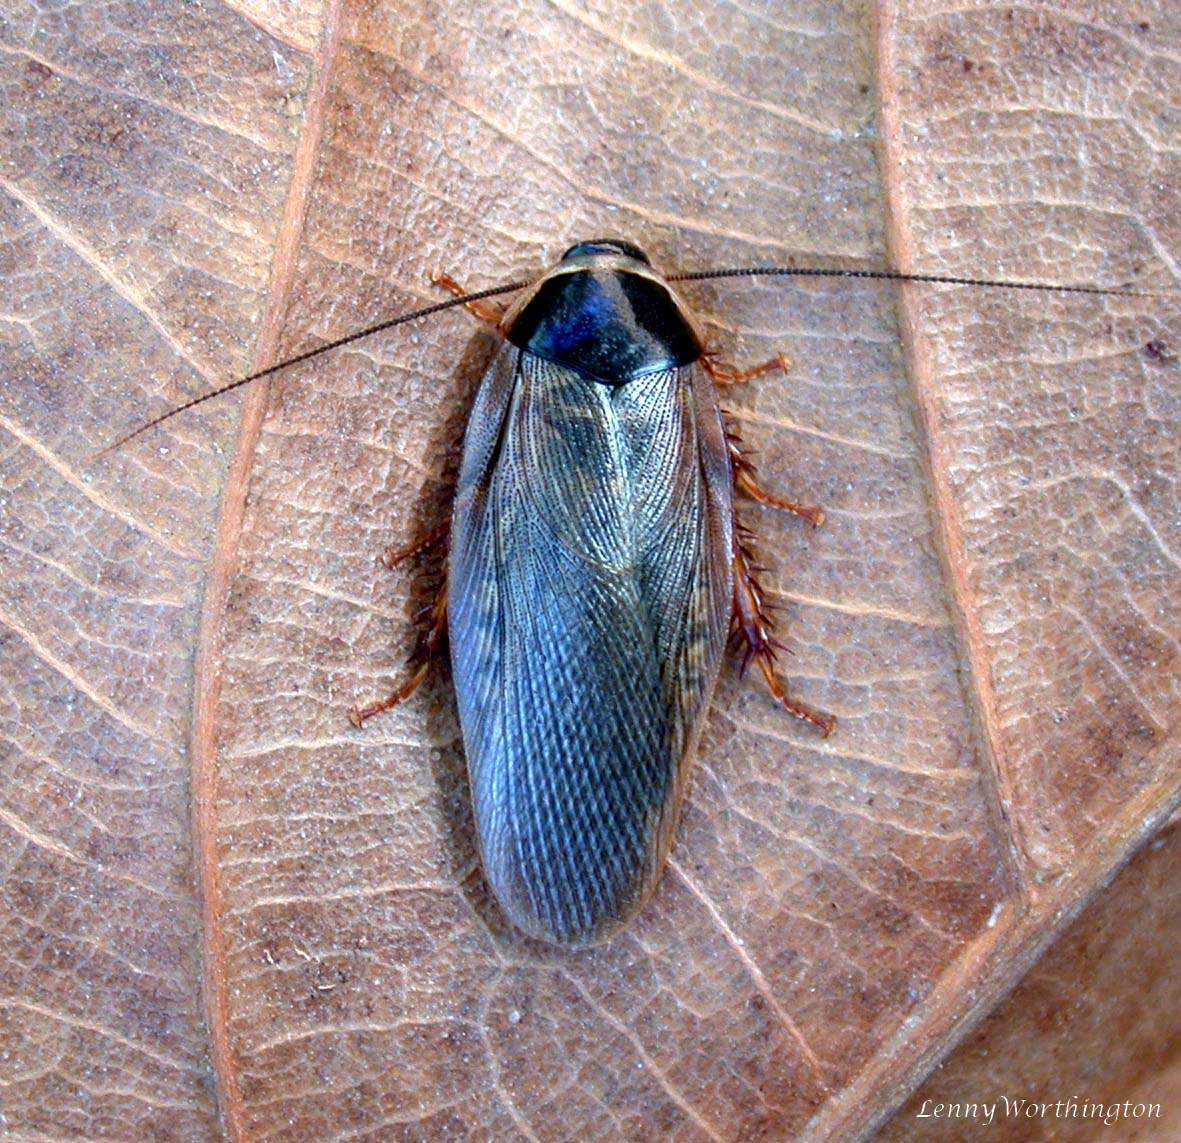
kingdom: Animalia
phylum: Arthropoda
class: Insecta
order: Blattodea
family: Blaberidae
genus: Pycnoscelus
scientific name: Pycnoscelus indicus
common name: Burrowing cockroach
